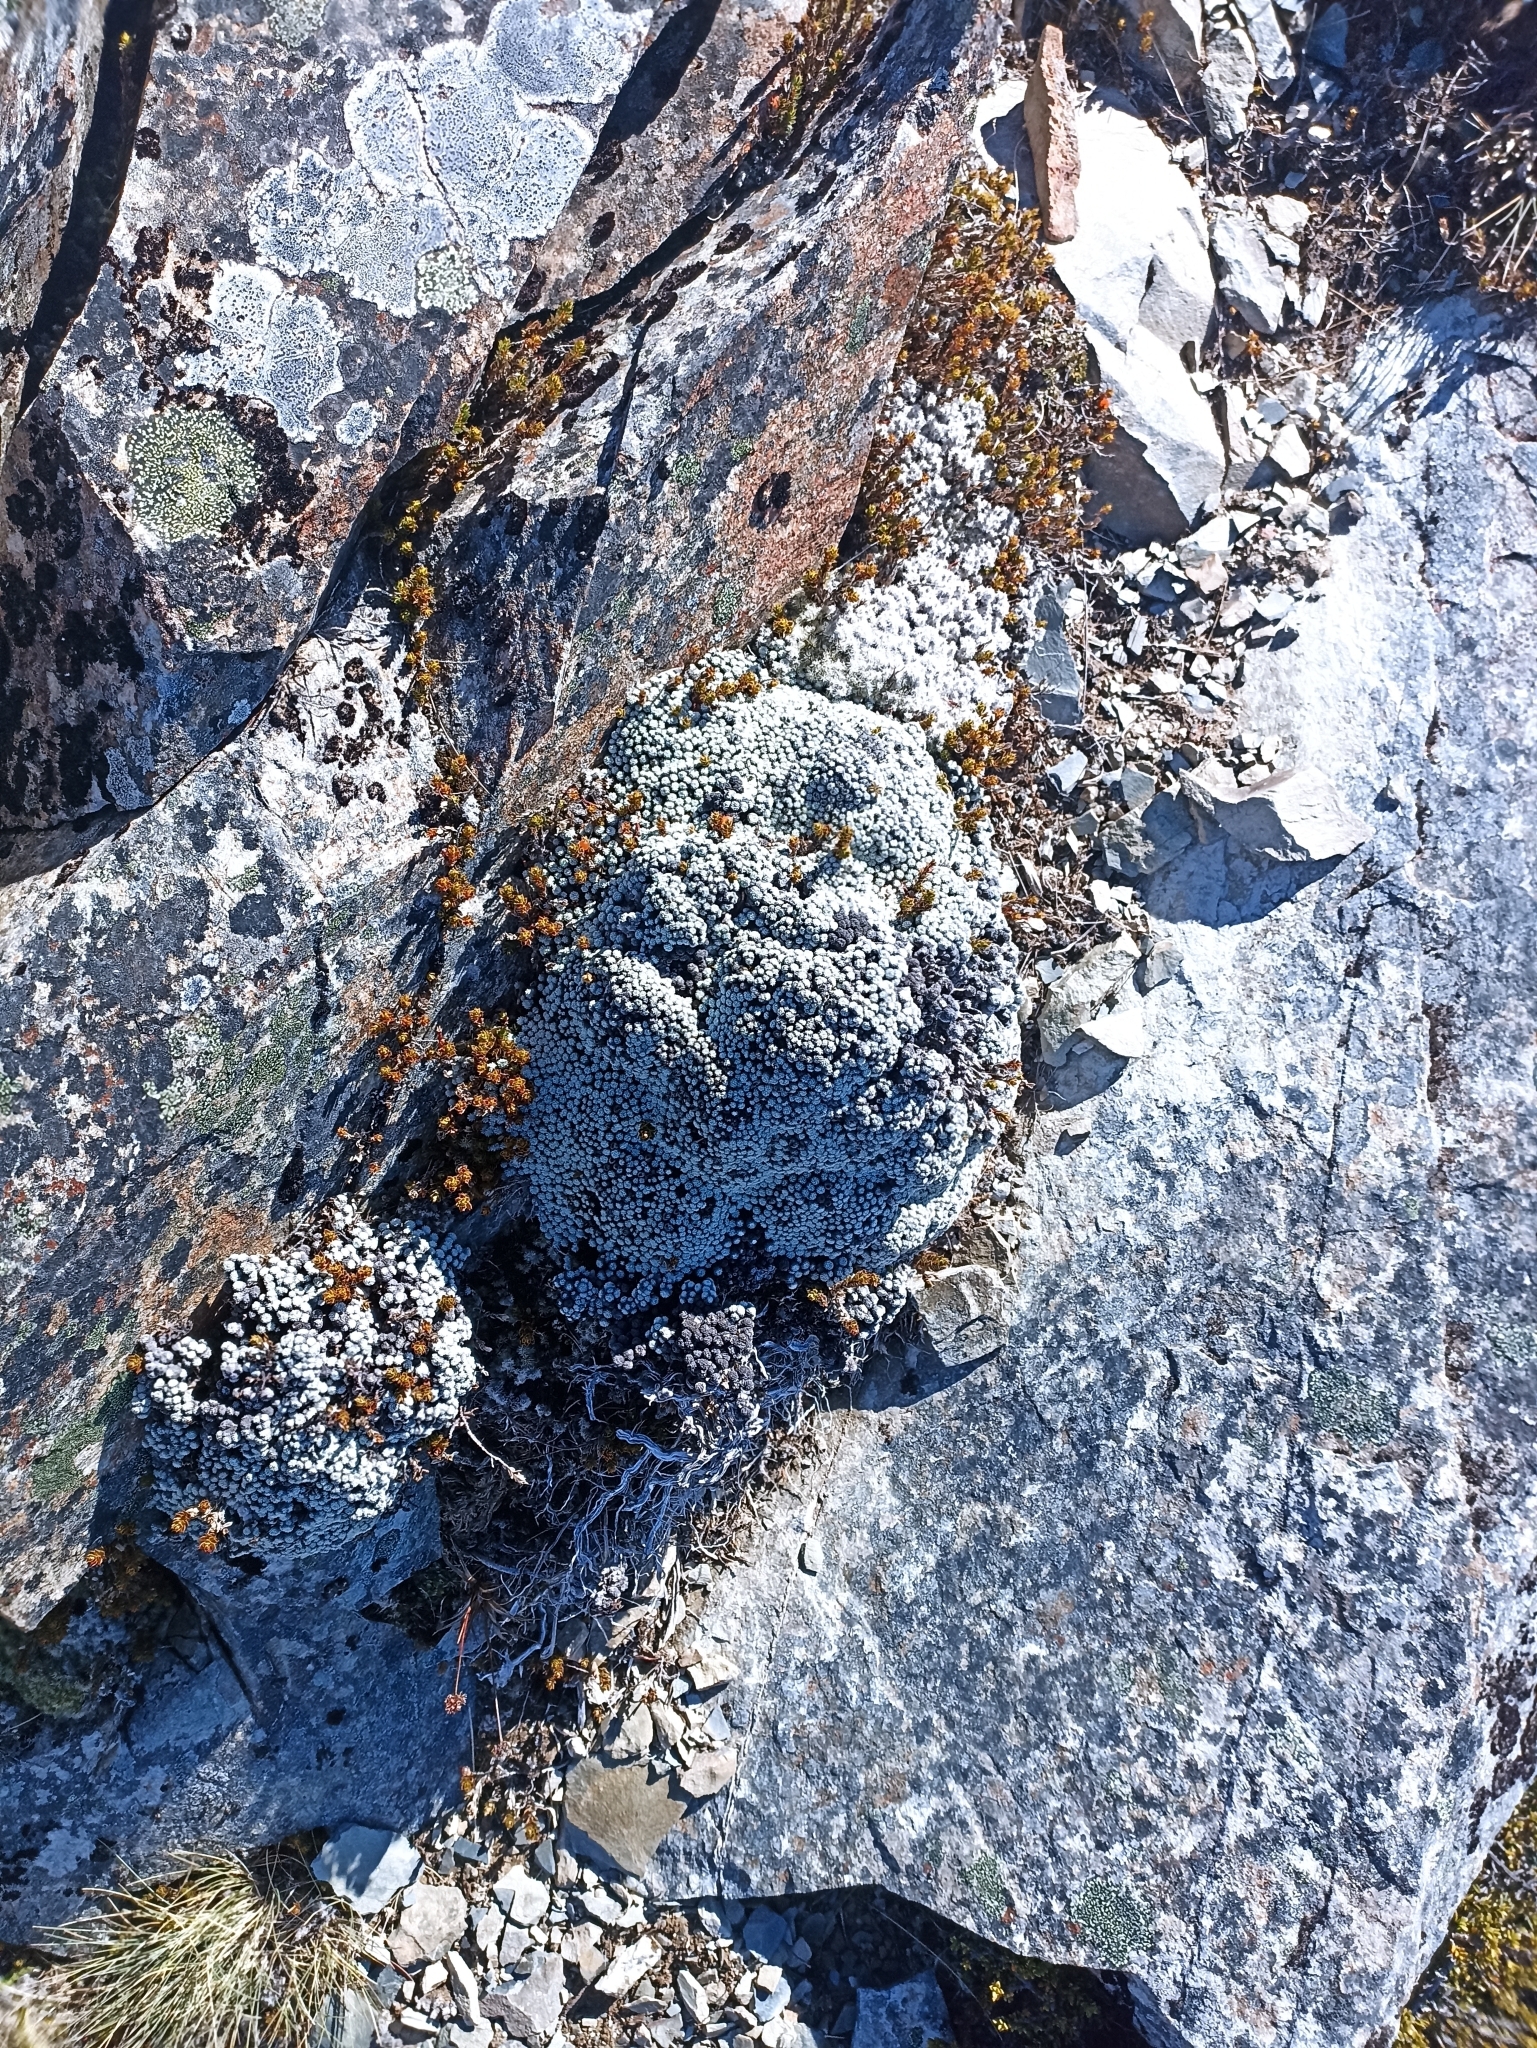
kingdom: Plantae
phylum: Tracheophyta
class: Magnoliopsida
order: Asterales
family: Asteraceae
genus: Raoulia
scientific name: Raoulia bryoides
